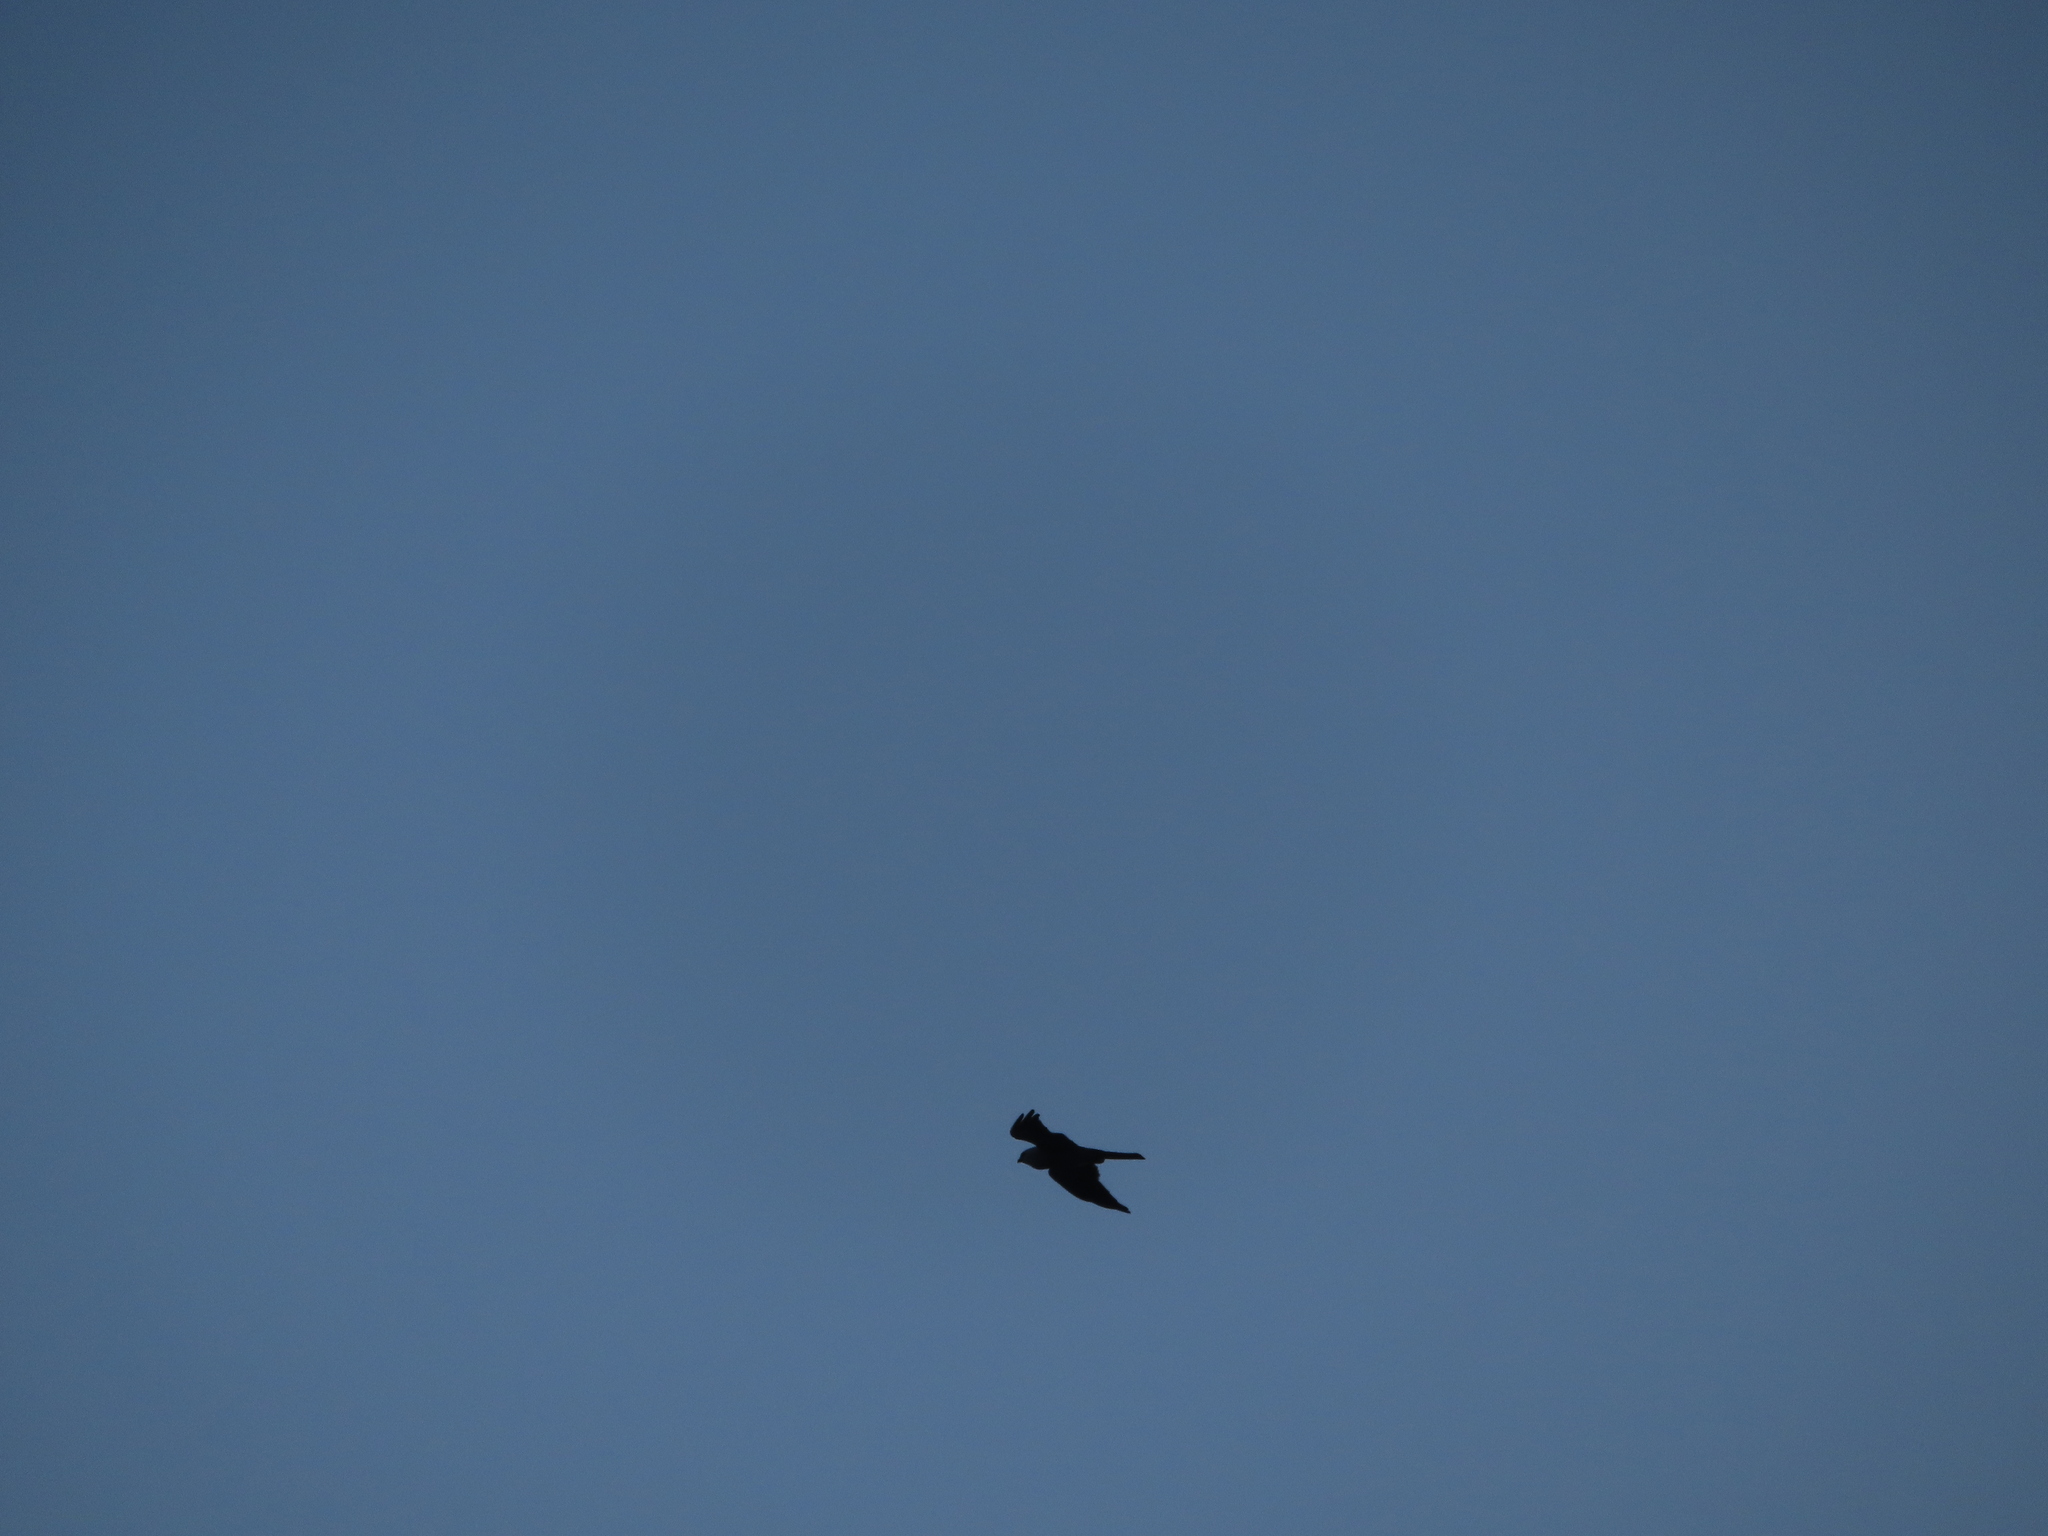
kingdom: Animalia
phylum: Chordata
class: Aves
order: Accipitriformes
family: Accipitridae
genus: Ictinia
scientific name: Ictinia mississippiensis
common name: Mississippi kite
